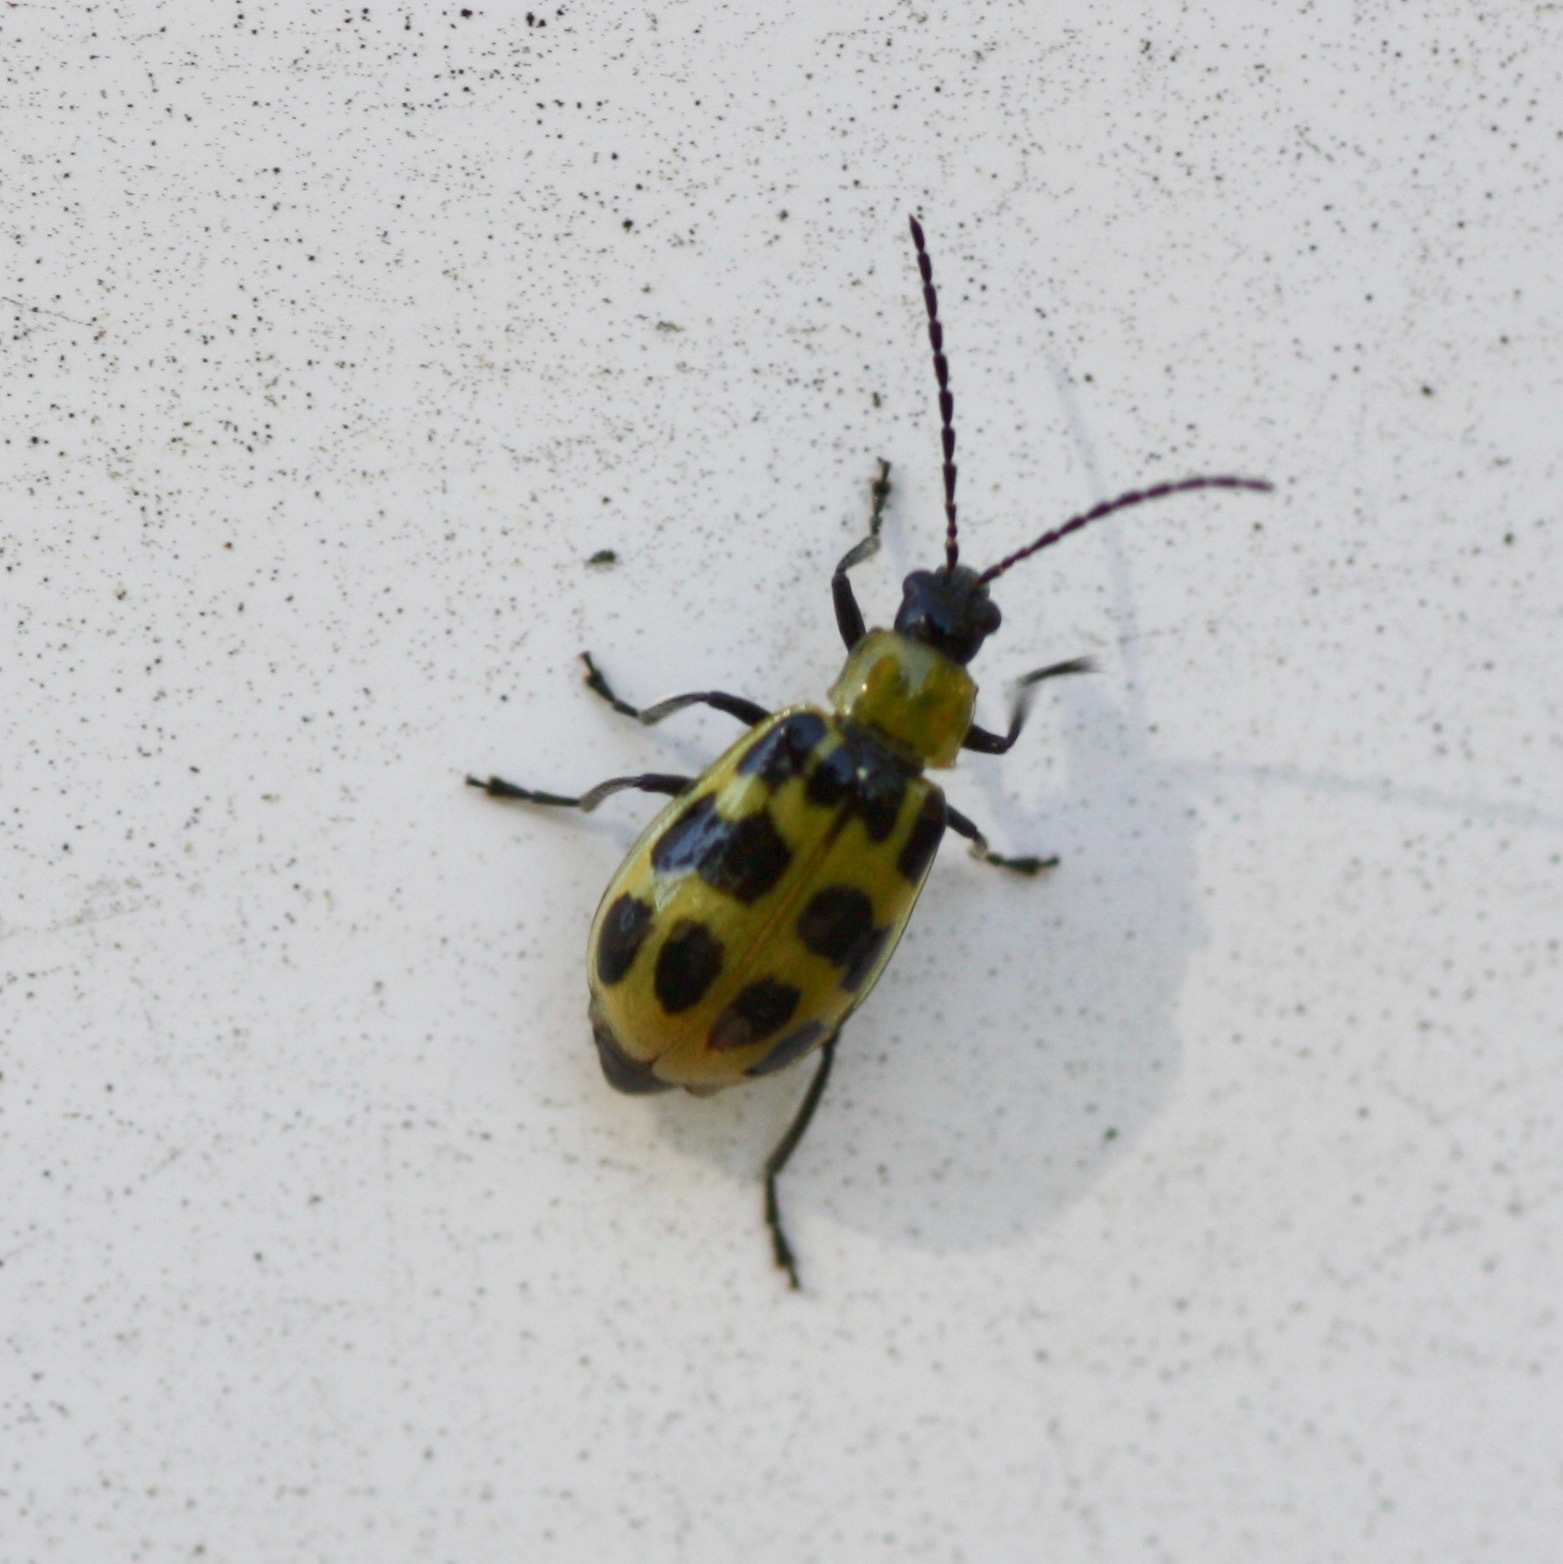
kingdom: Animalia
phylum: Arthropoda
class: Insecta
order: Coleoptera
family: Chrysomelidae
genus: Diabrotica
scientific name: Diabrotica undecimpunctata
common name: Spotted cucumber beetle
